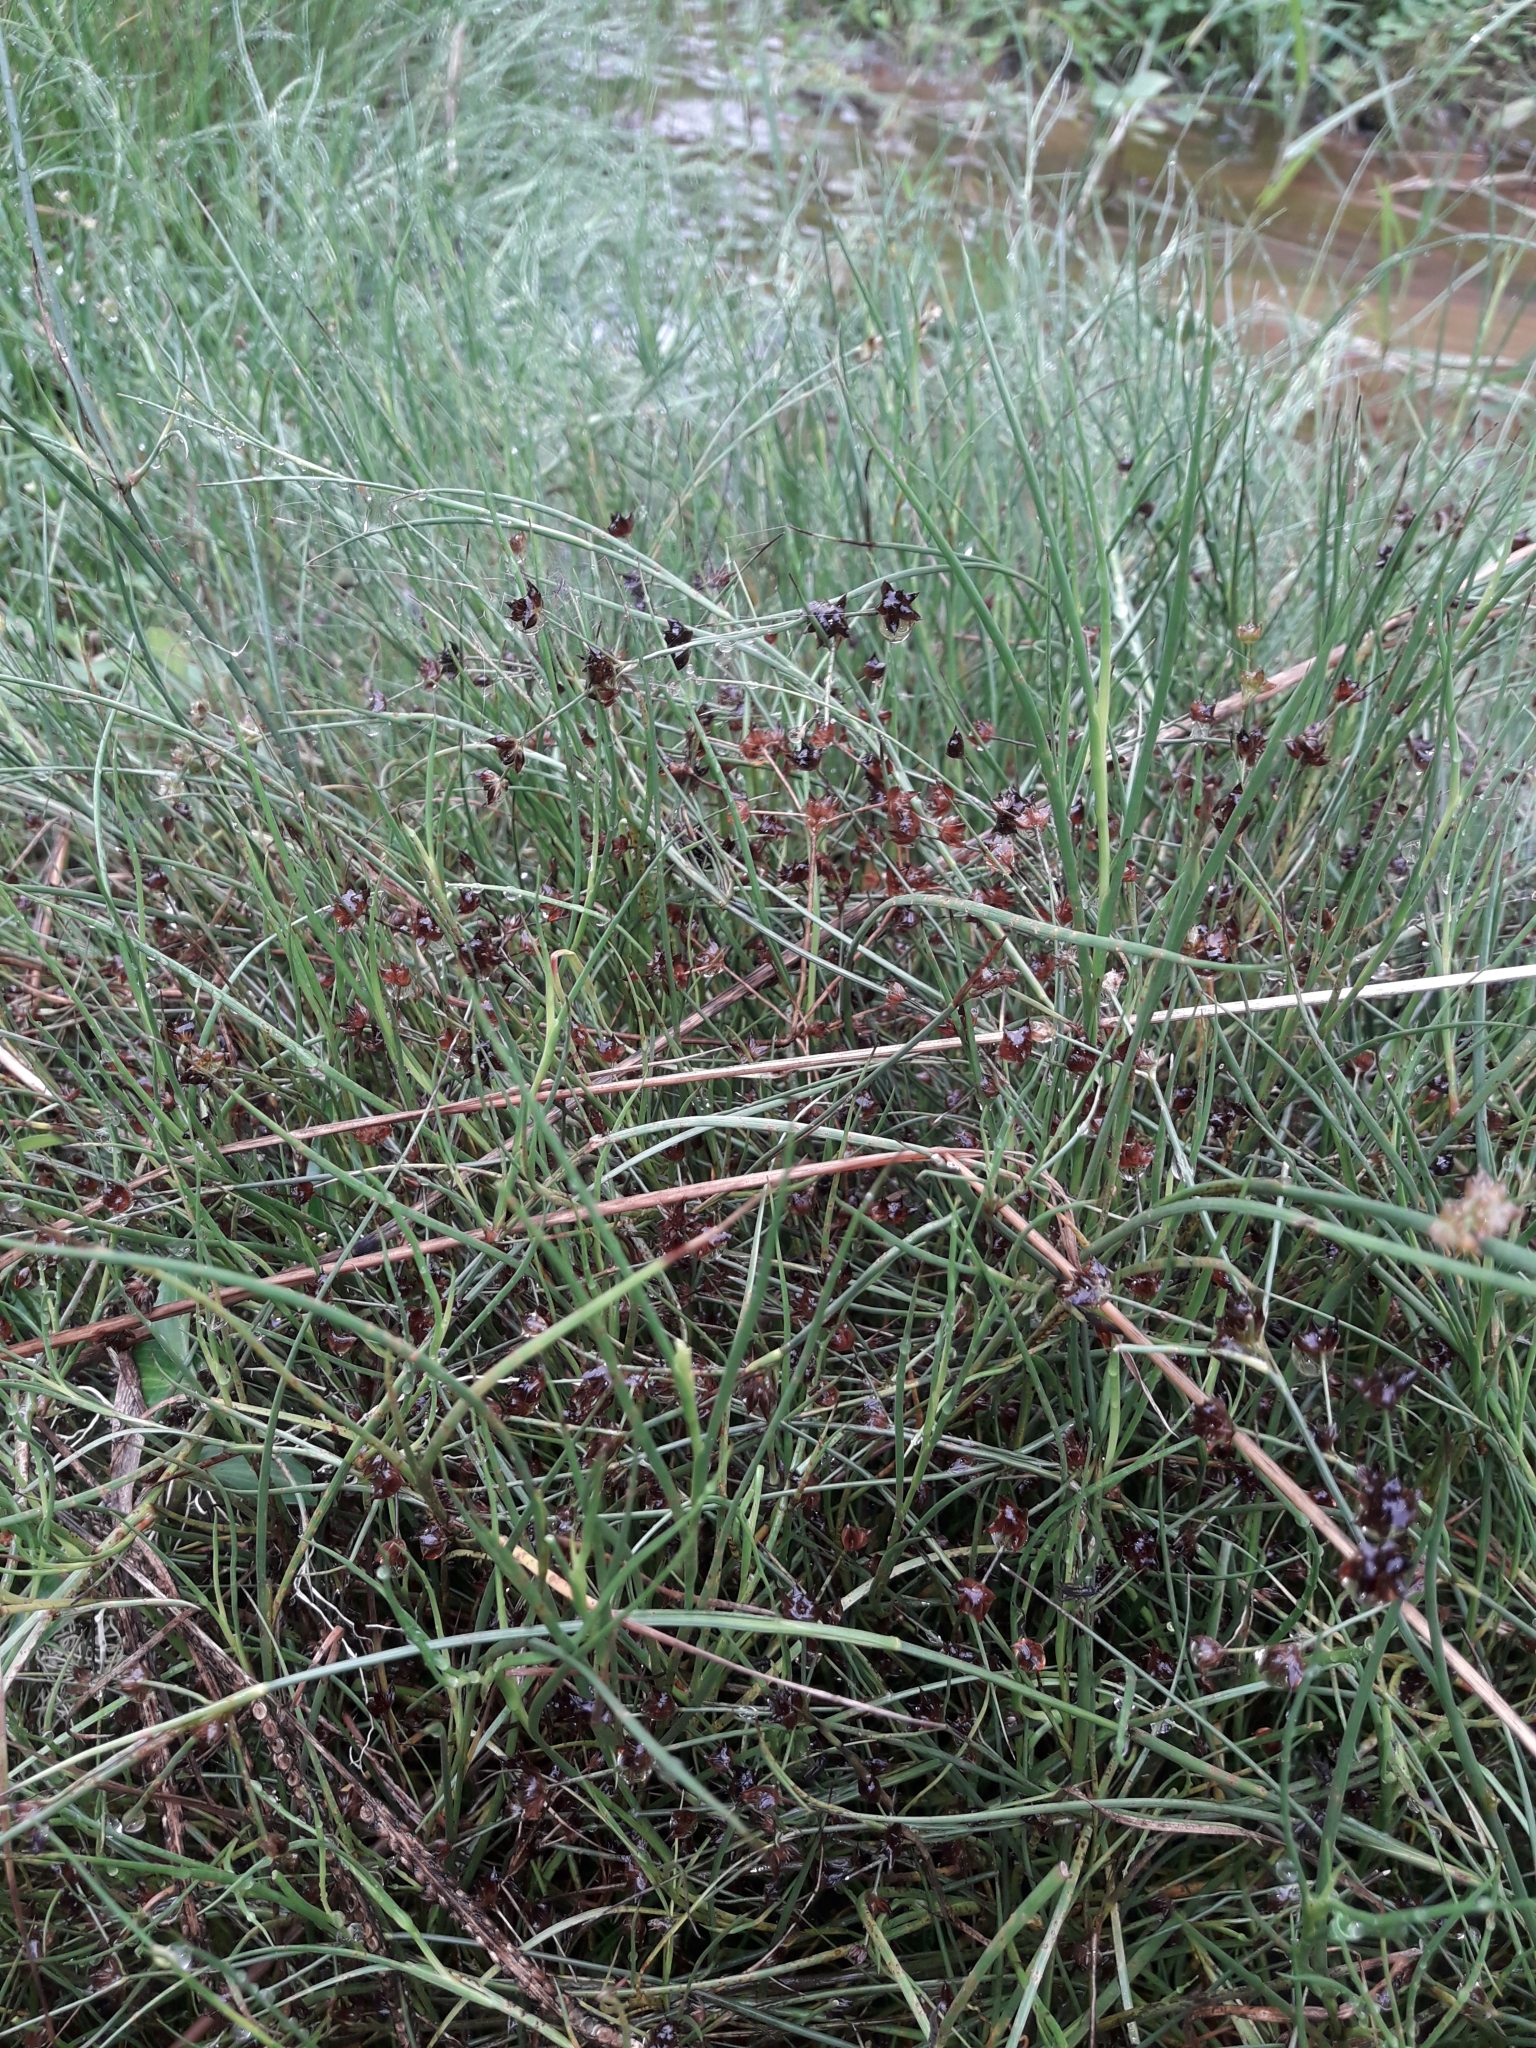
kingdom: Plantae
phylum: Tracheophyta
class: Liliopsida
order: Poales
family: Juncaceae
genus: Juncus
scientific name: Juncus articulatus
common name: Jointed rush
